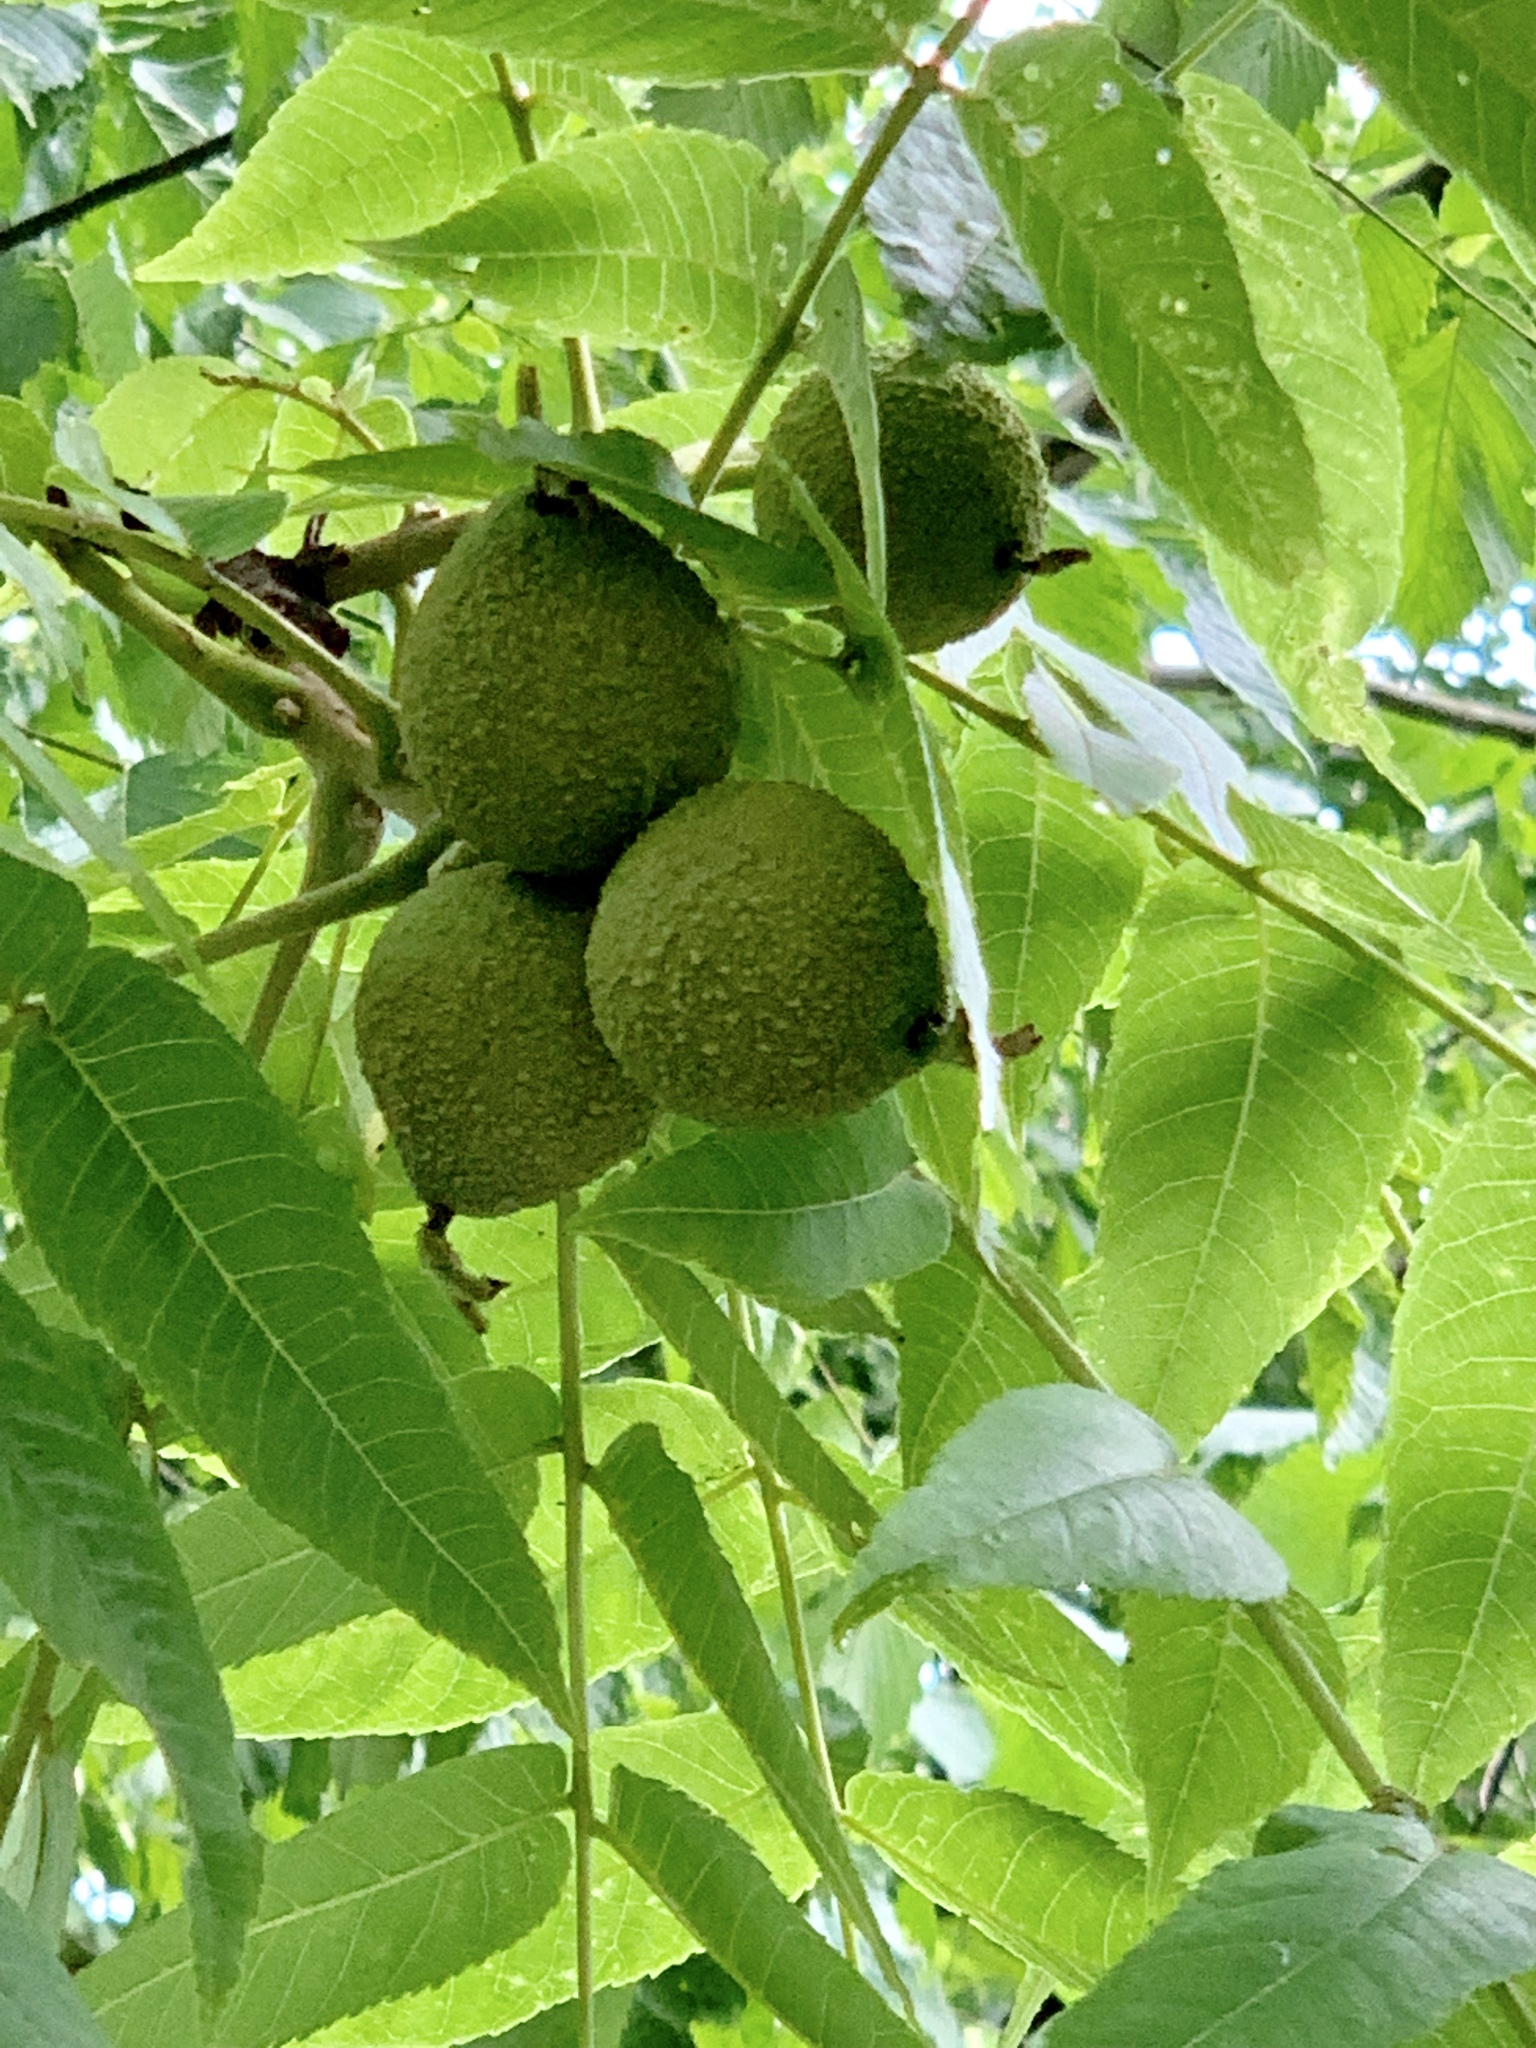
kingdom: Plantae
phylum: Tracheophyta
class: Magnoliopsida
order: Fagales
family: Juglandaceae
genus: Juglans
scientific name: Juglans nigra
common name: Black walnut
